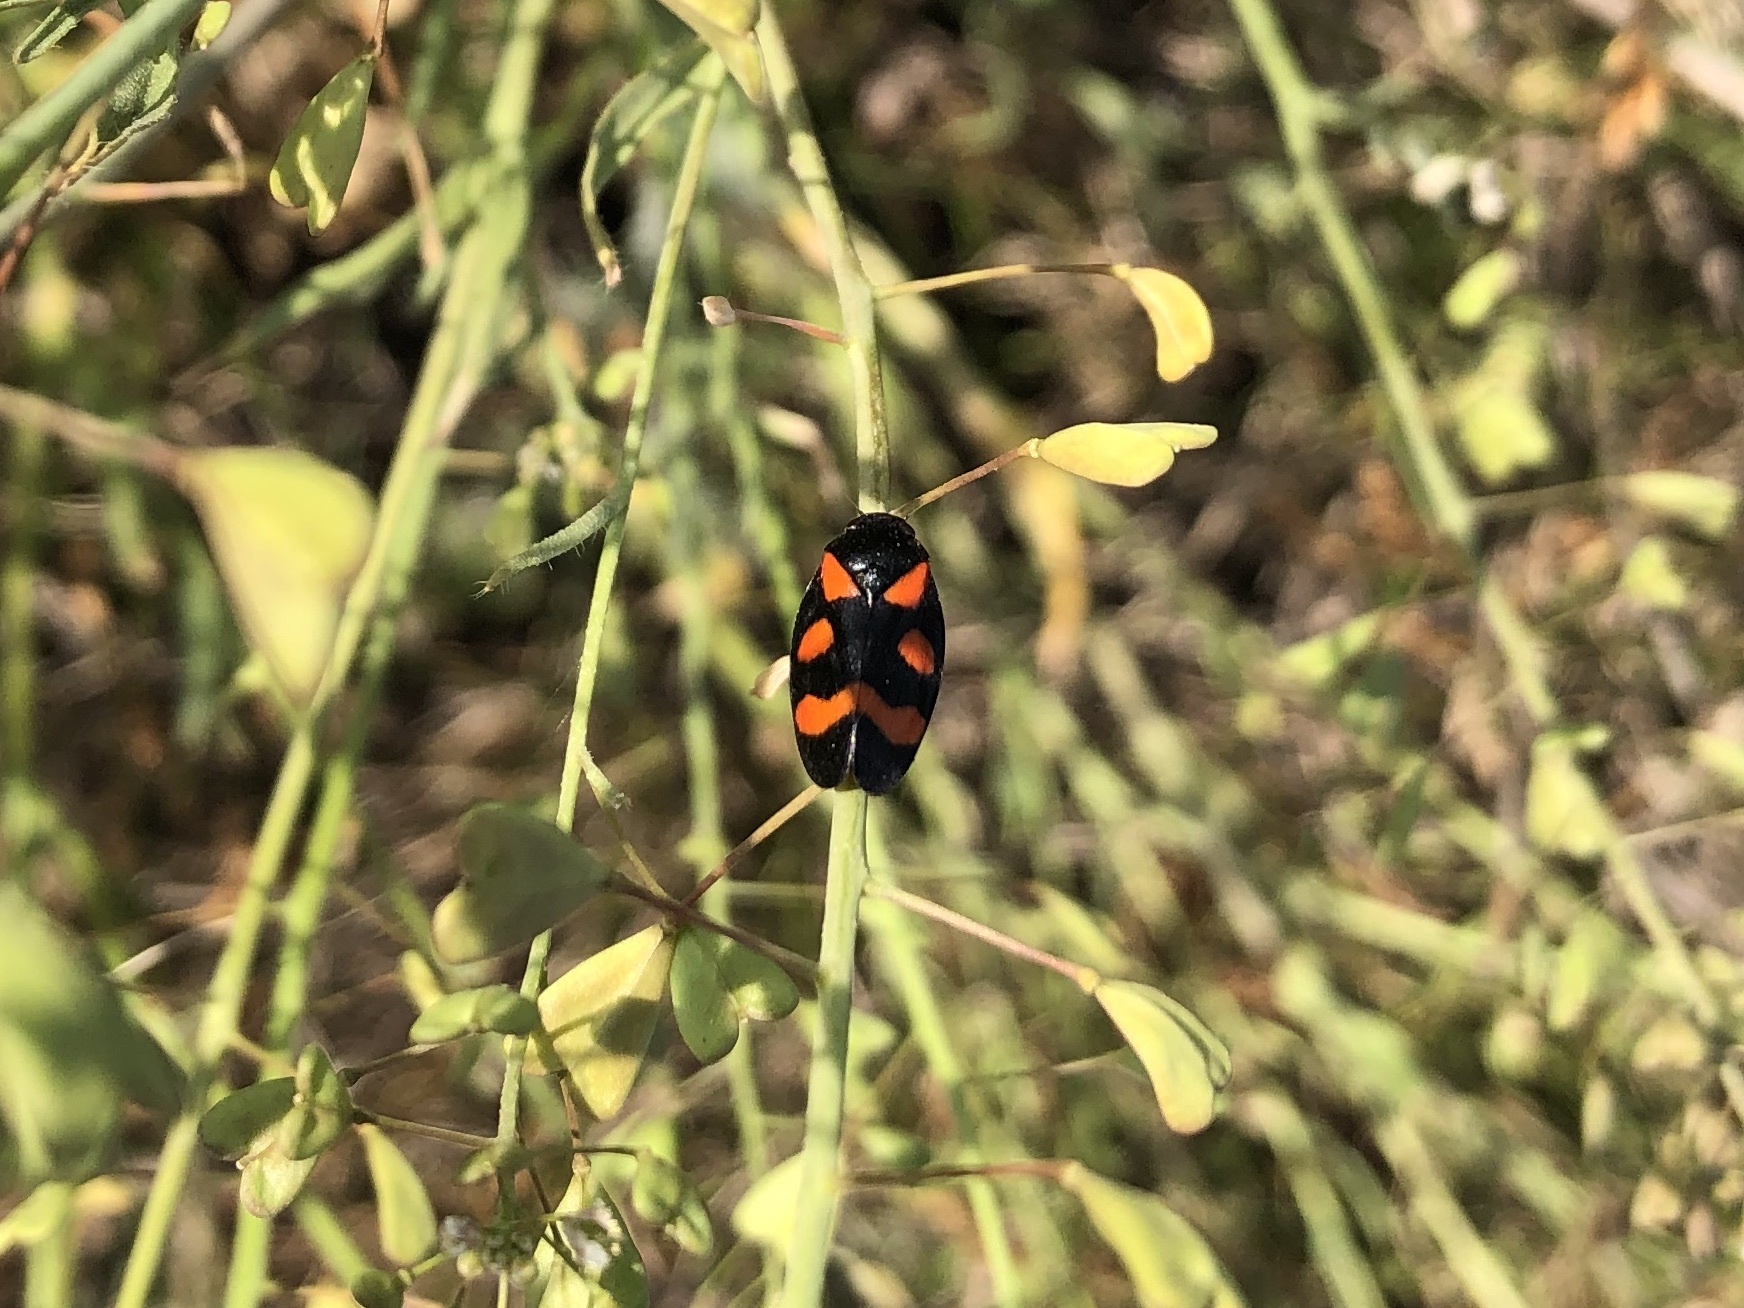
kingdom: Animalia
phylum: Arthropoda
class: Insecta
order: Hemiptera
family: Cercopidae
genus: Cercopis
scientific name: Cercopis sanguinolenta
